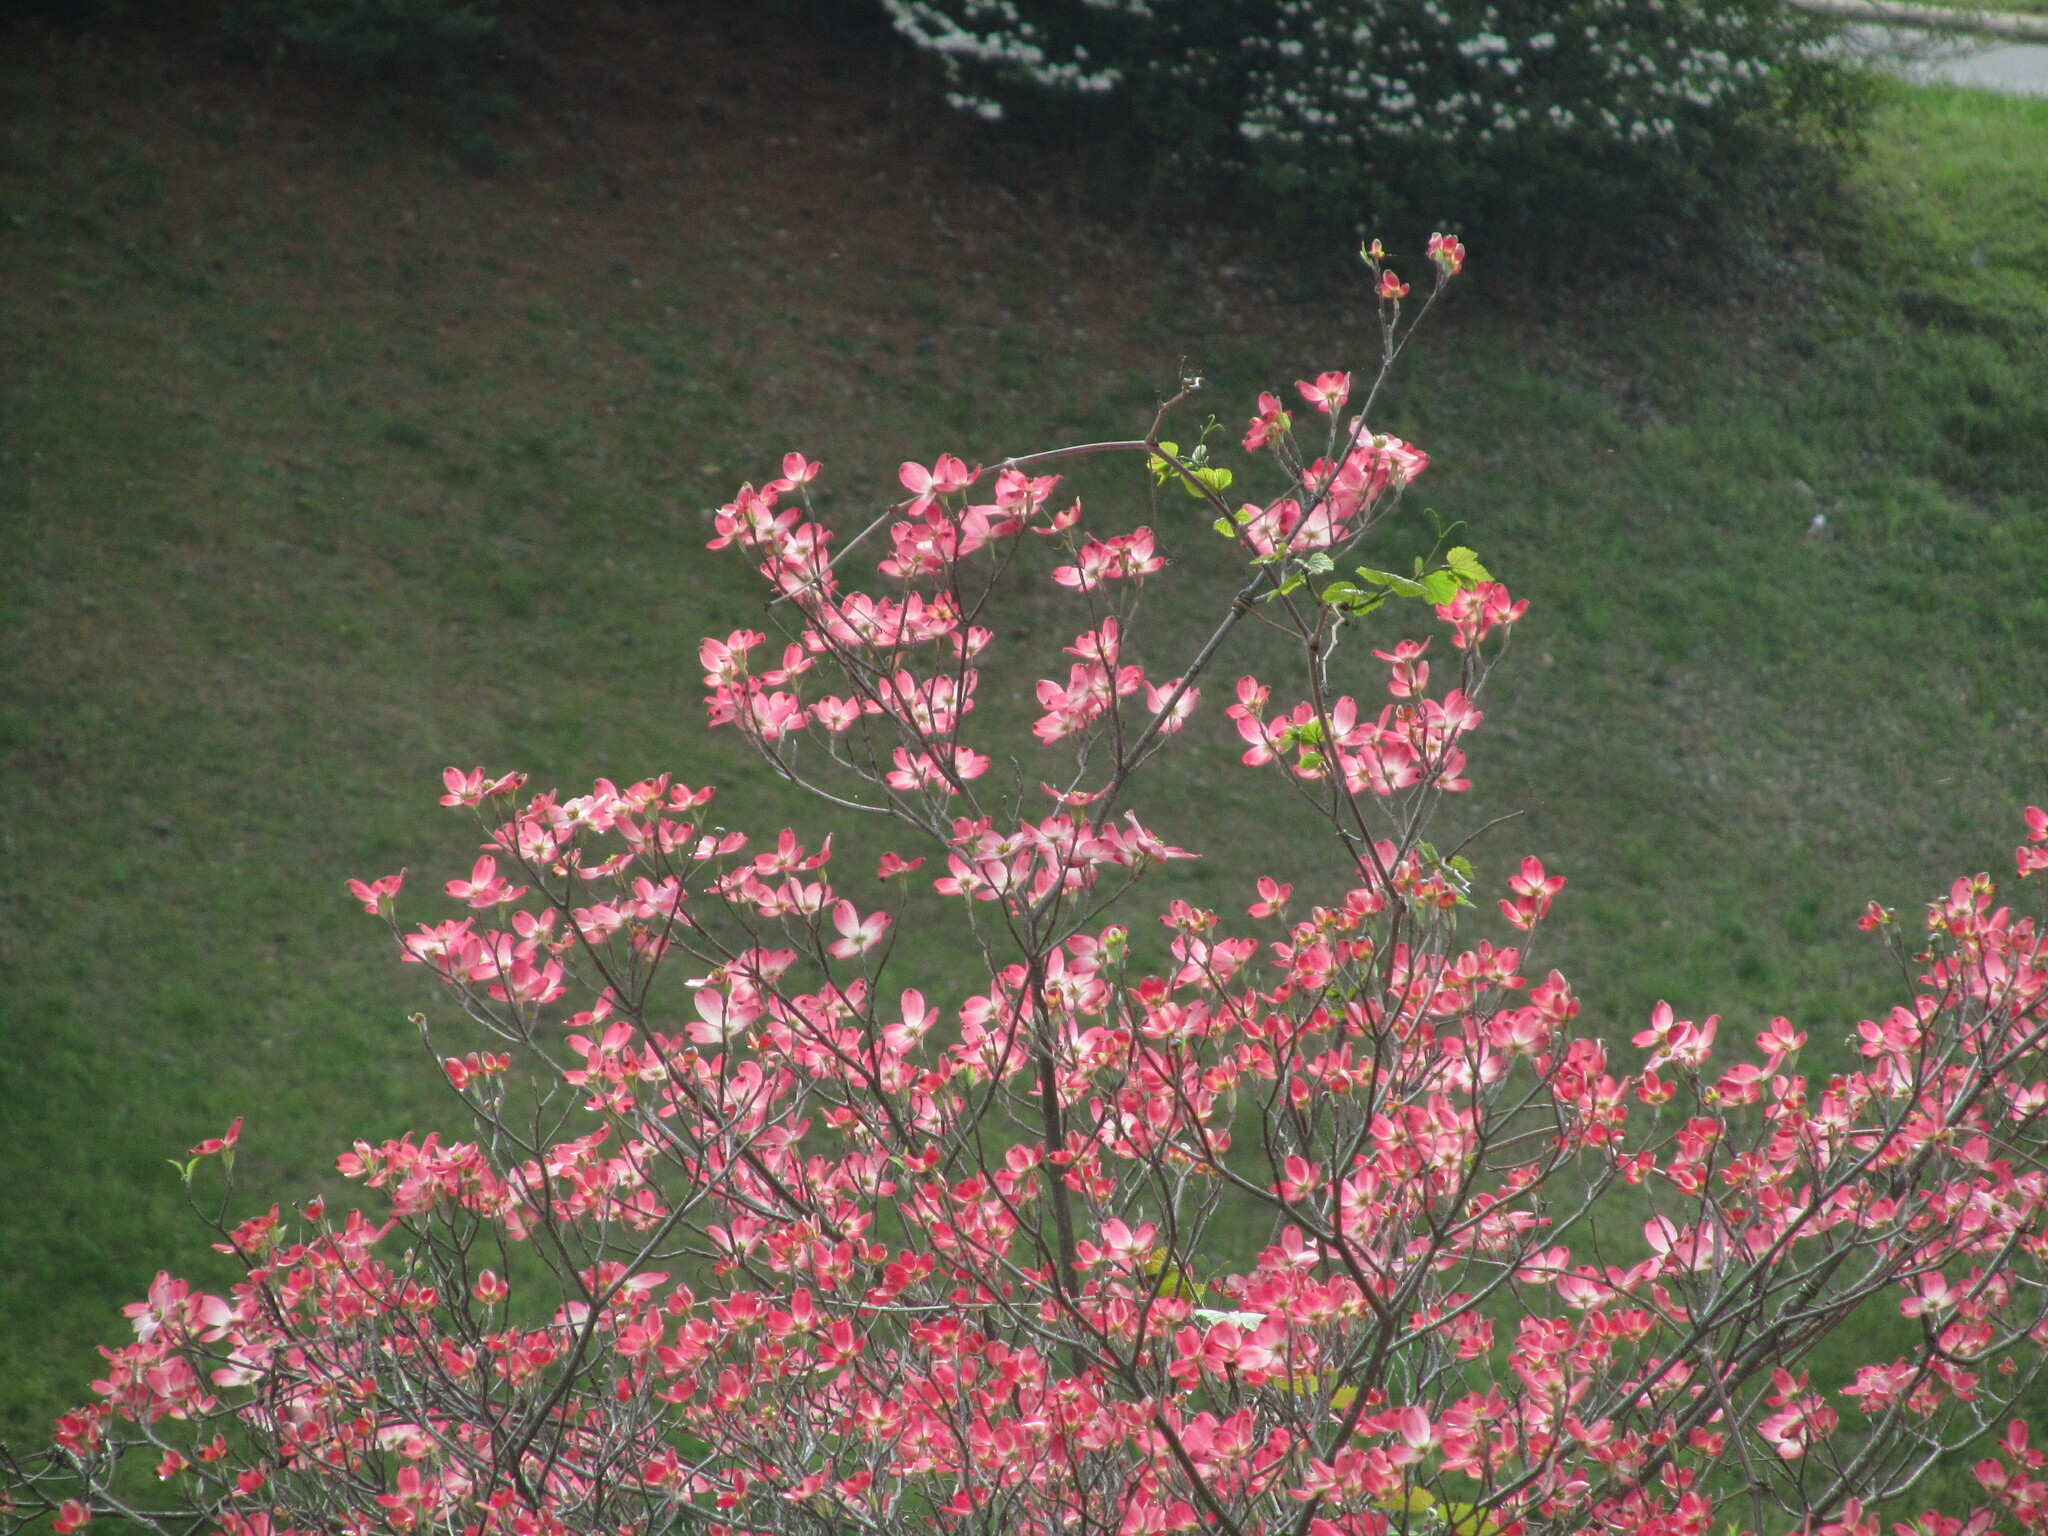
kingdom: Plantae
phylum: Tracheophyta
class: Magnoliopsida
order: Cornales
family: Cornaceae
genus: Cornus
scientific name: Cornus florida
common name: Flowering dogwood
